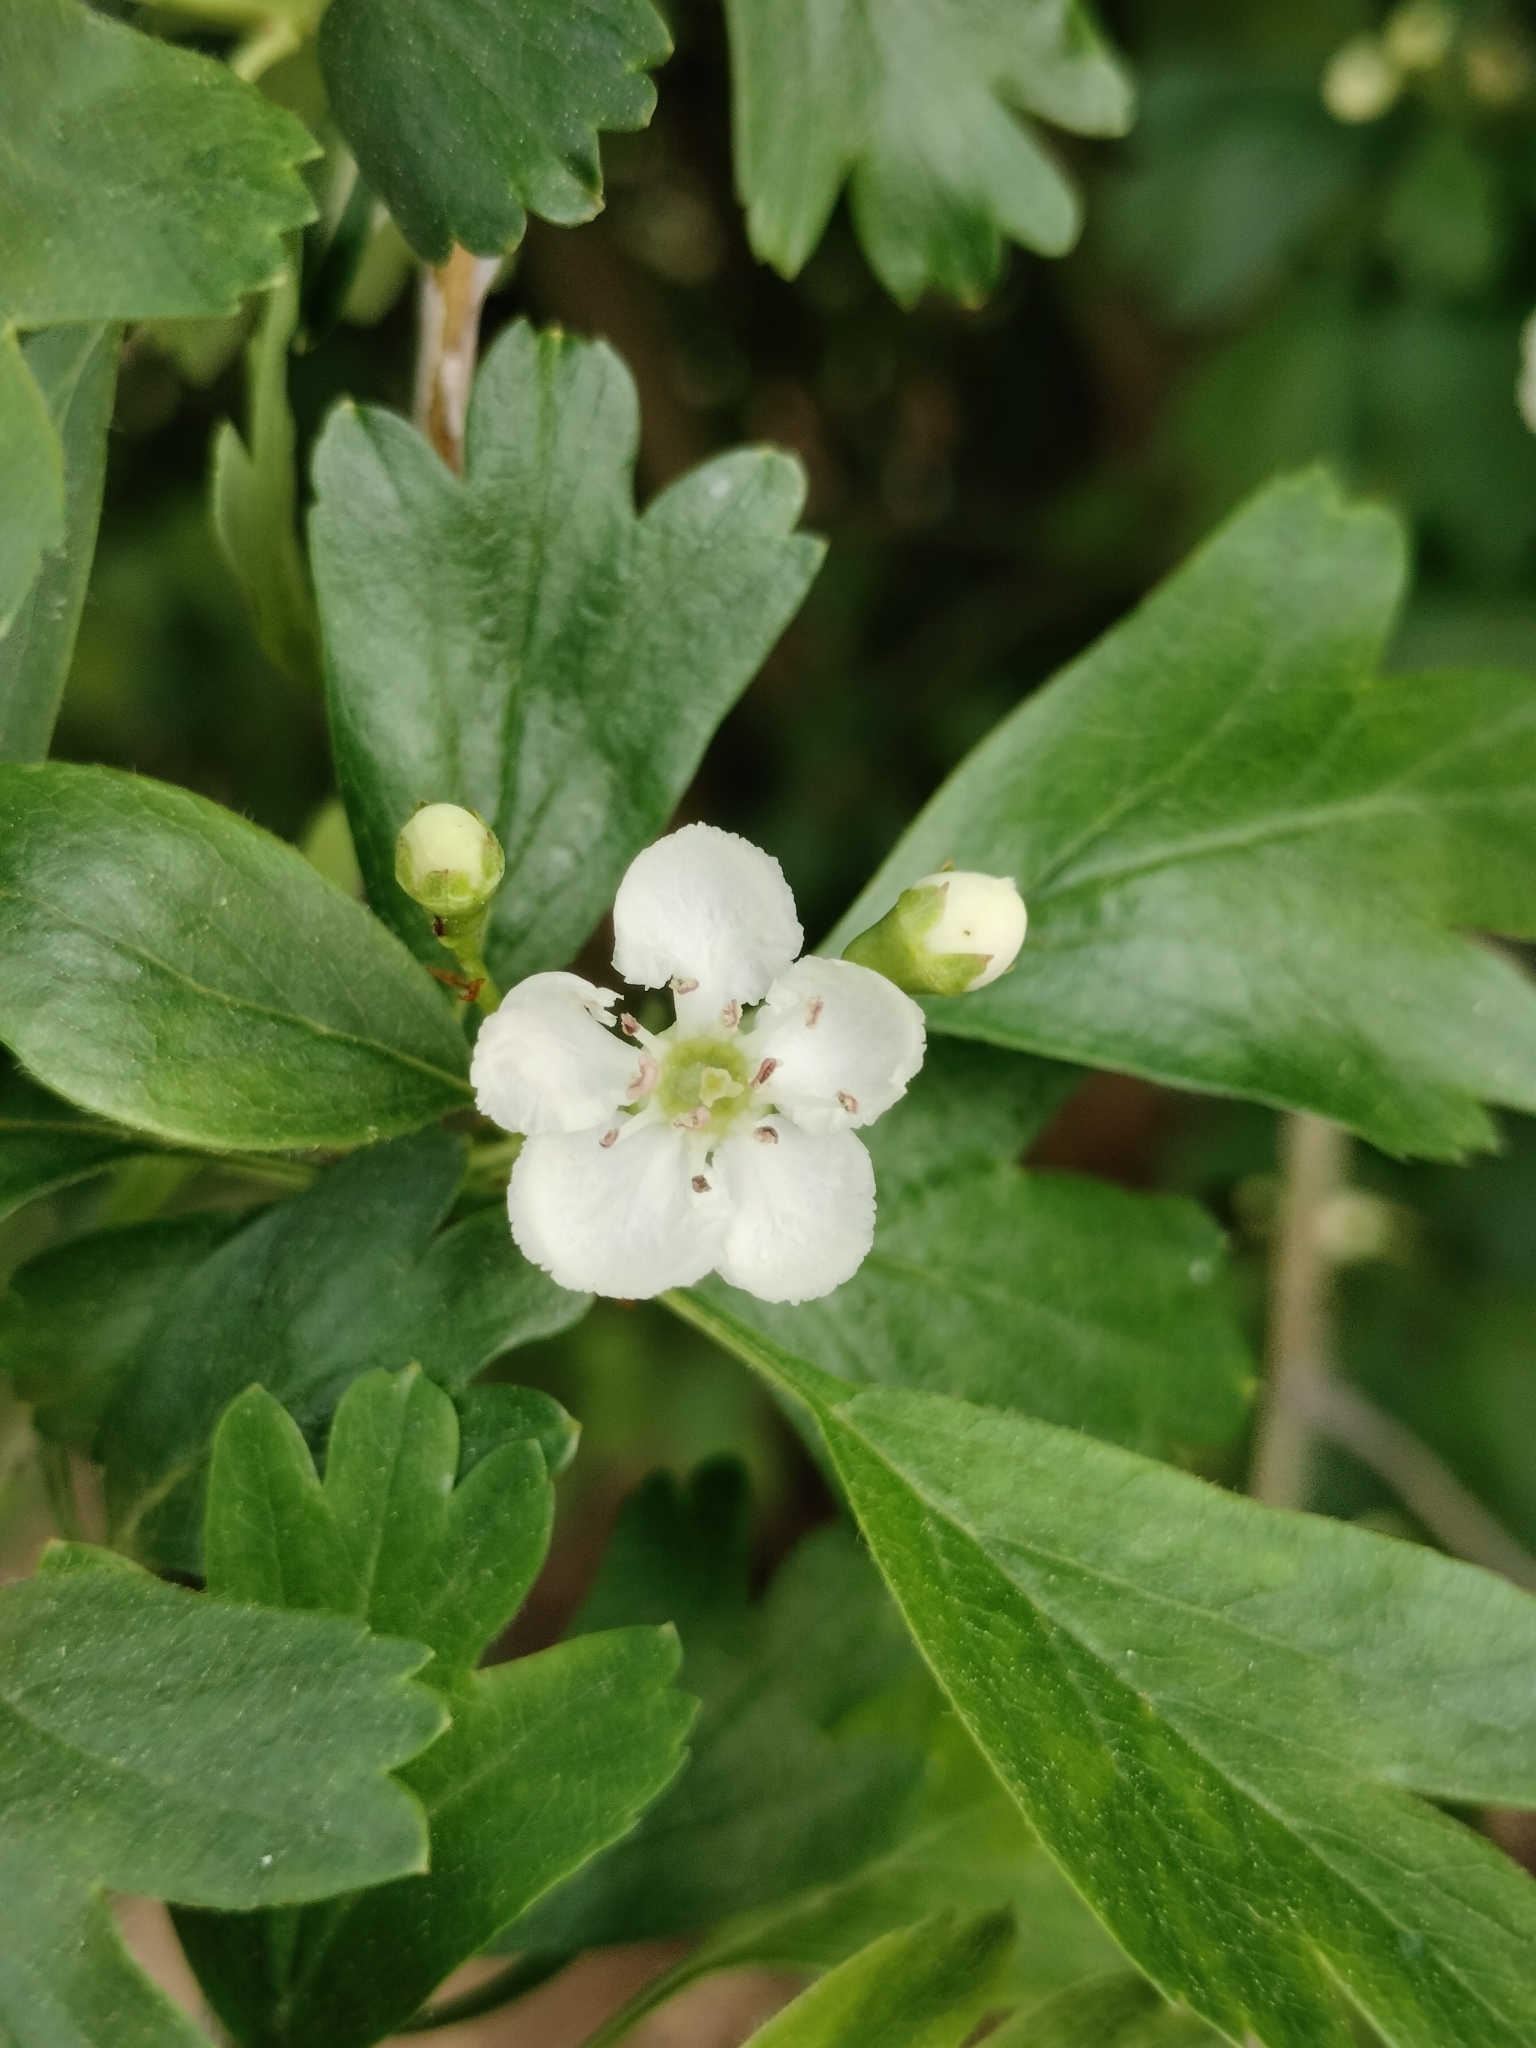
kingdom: Plantae
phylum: Tracheophyta
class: Magnoliopsida
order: Rosales
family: Rosaceae
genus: Crataegus
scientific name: Crataegus monogyna
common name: Hawthorn
